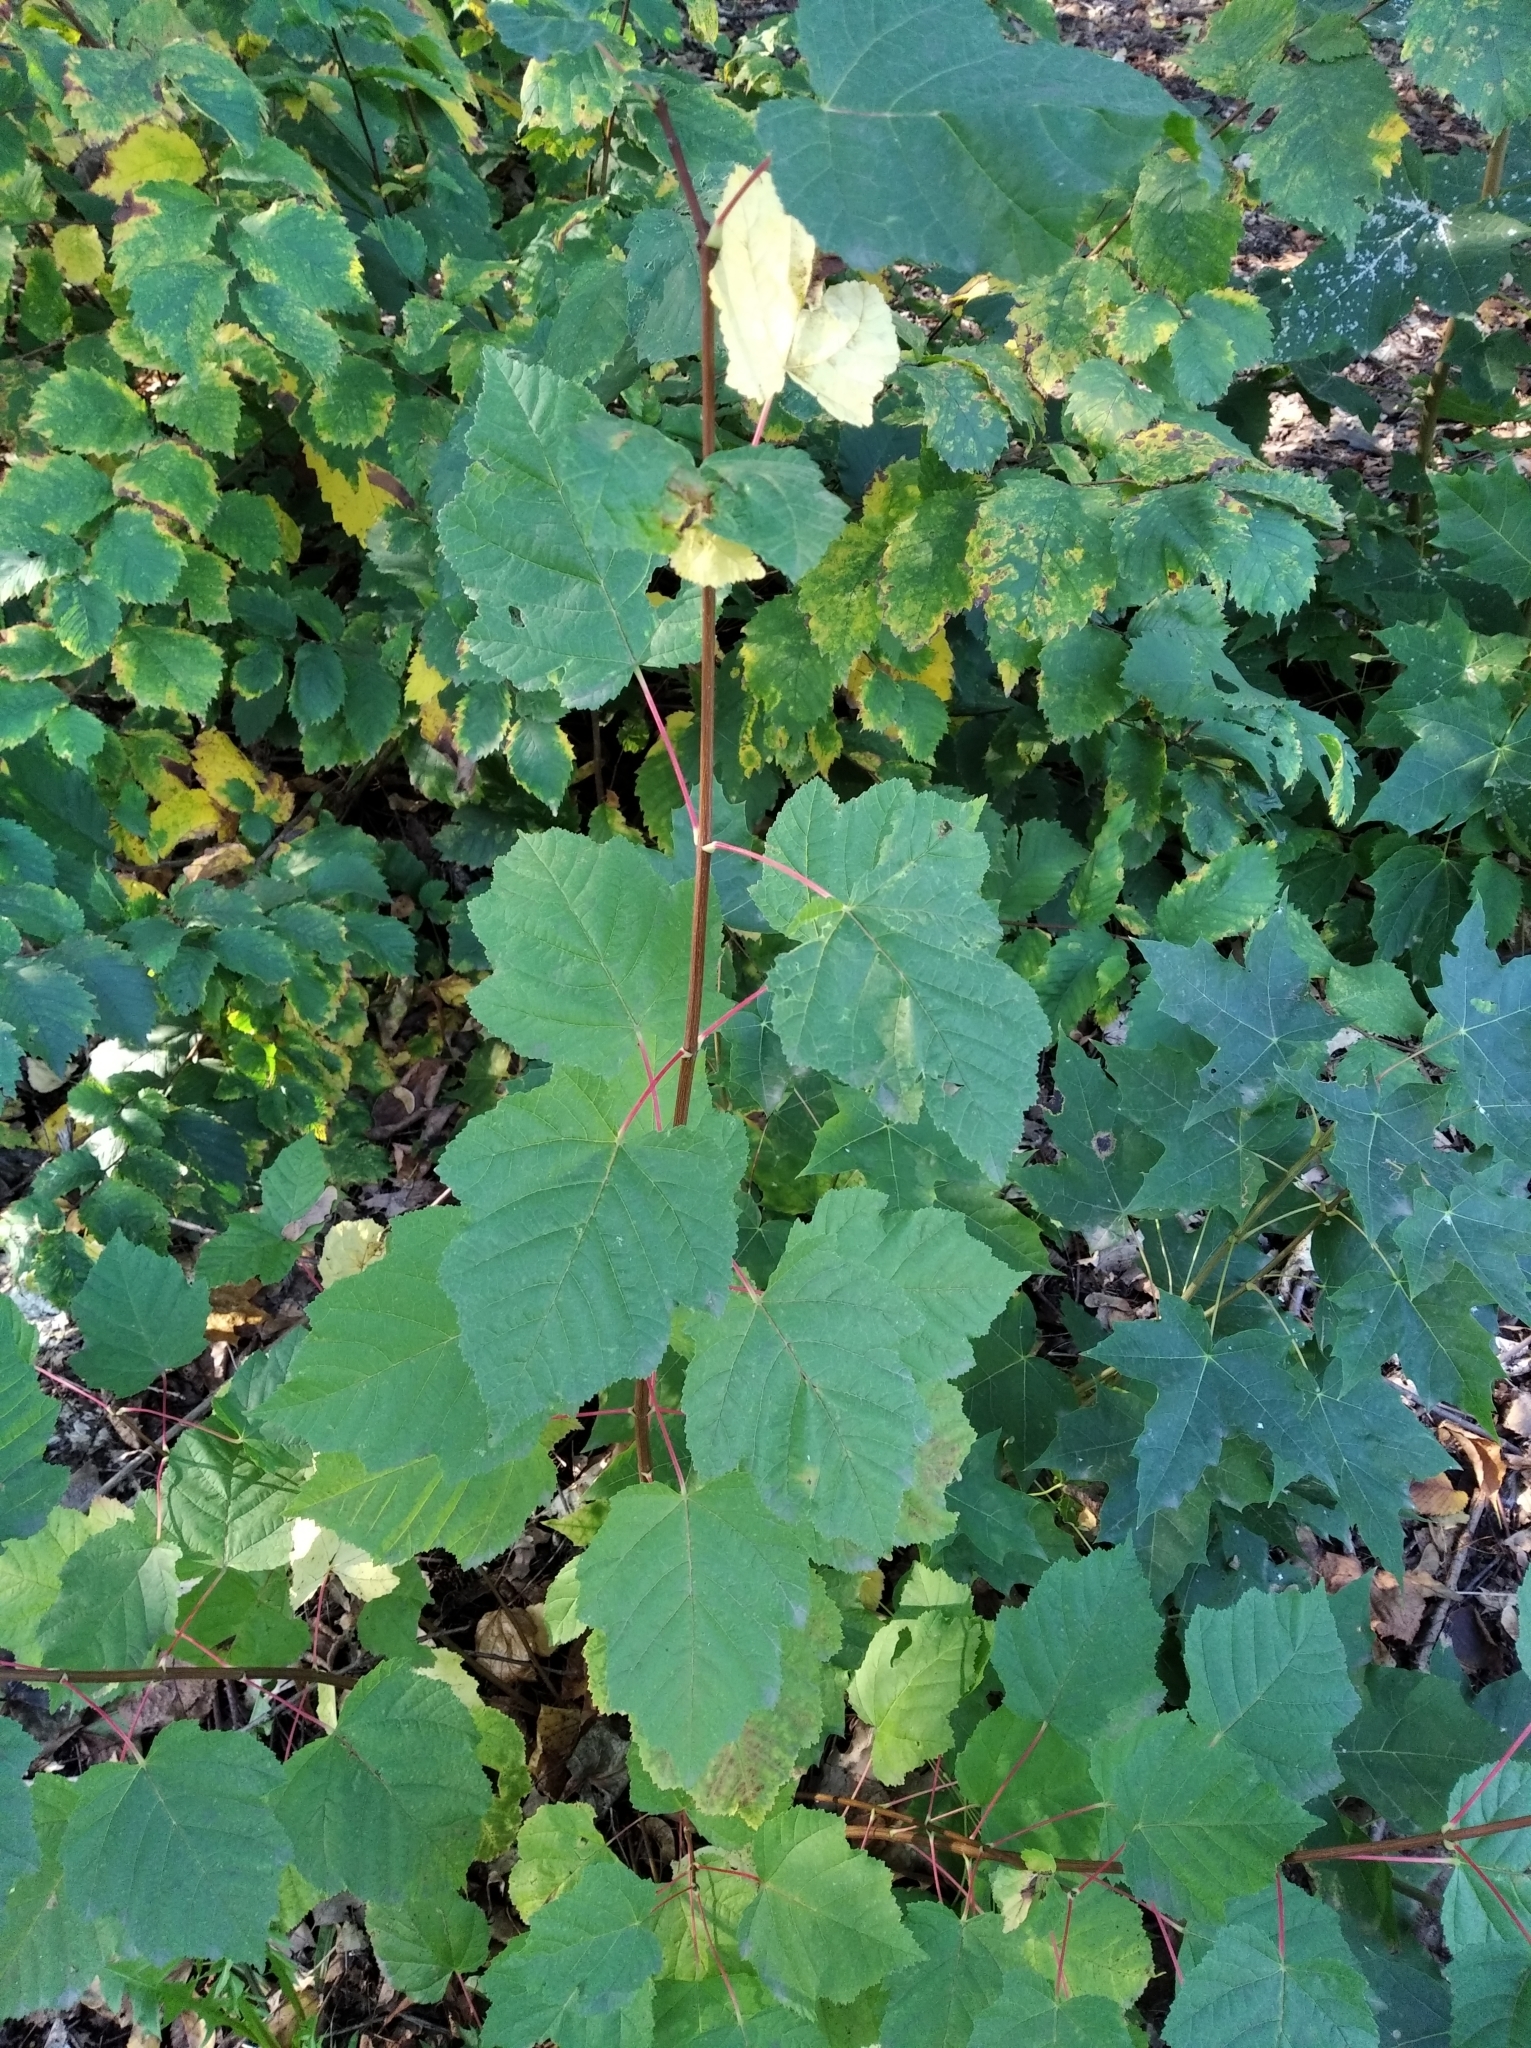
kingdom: Plantae
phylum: Tracheophyta
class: Magnoliopsida
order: Sapindales
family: Sapindaceae
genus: Acer
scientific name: Acer tataricum
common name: Tartar maple
